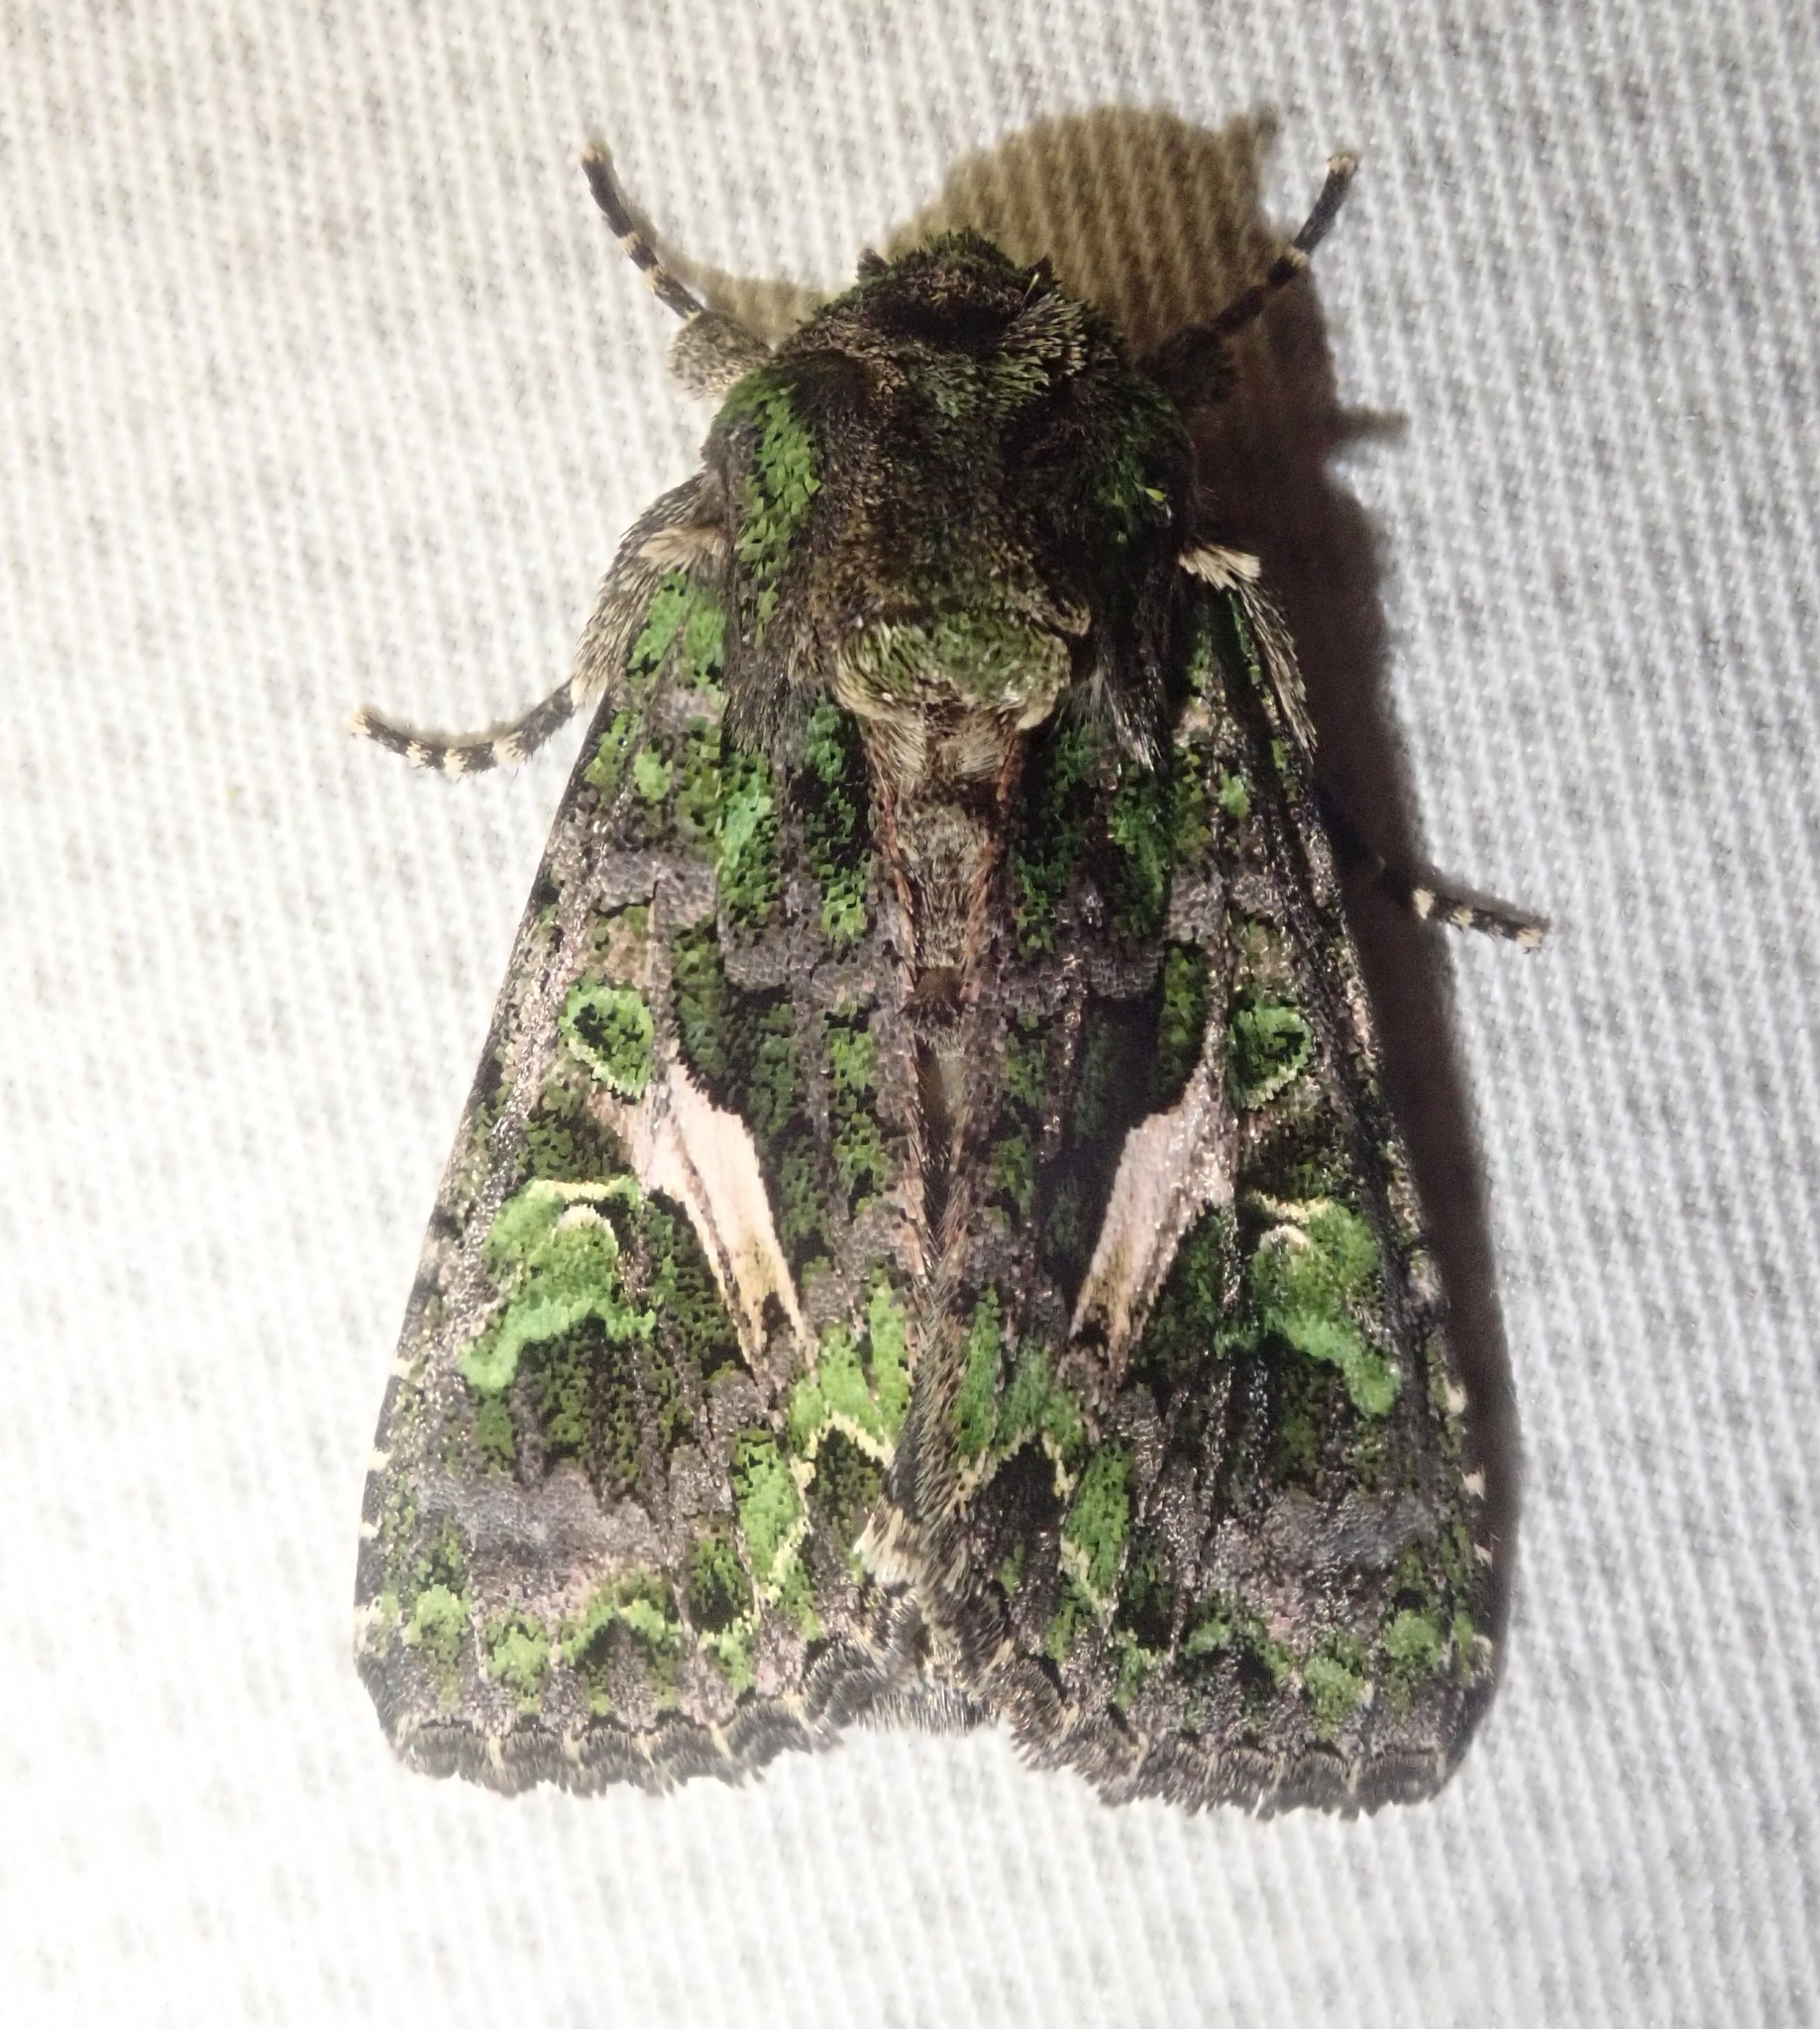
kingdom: Animalia
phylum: Arthropoda
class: Insecta
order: Lepidoptera
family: Noctuidae
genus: Trachea
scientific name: Trachea atriplicis
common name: Orache moth
